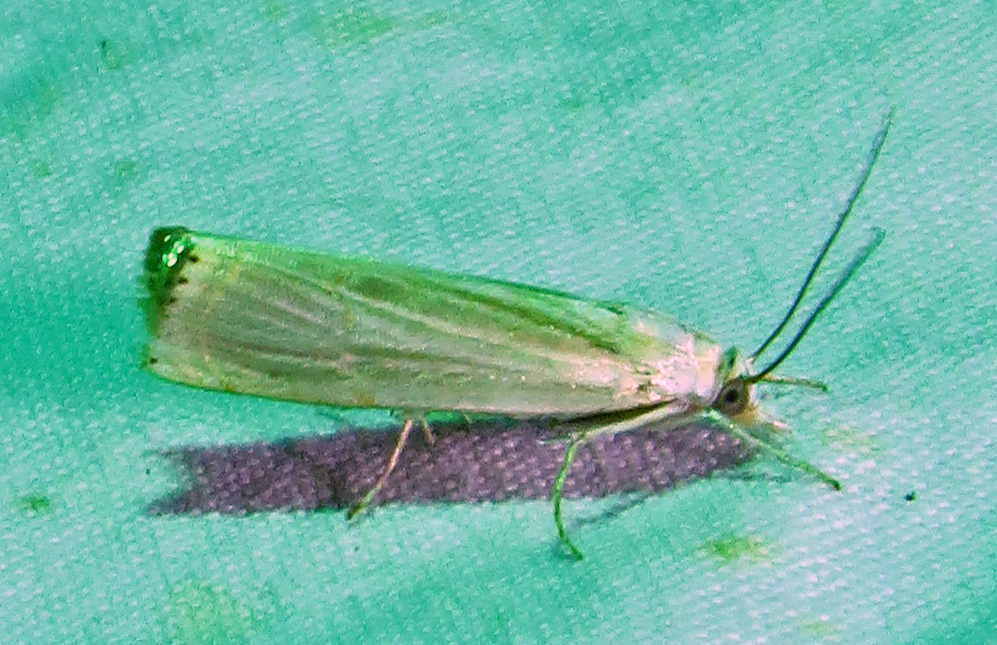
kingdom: Animalia
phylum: Arthropoda
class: Insecta
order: Lepidoptera
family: Crambidae
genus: Parapediasia
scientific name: Parapediasia decorellus
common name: Graceful grass-veneer
